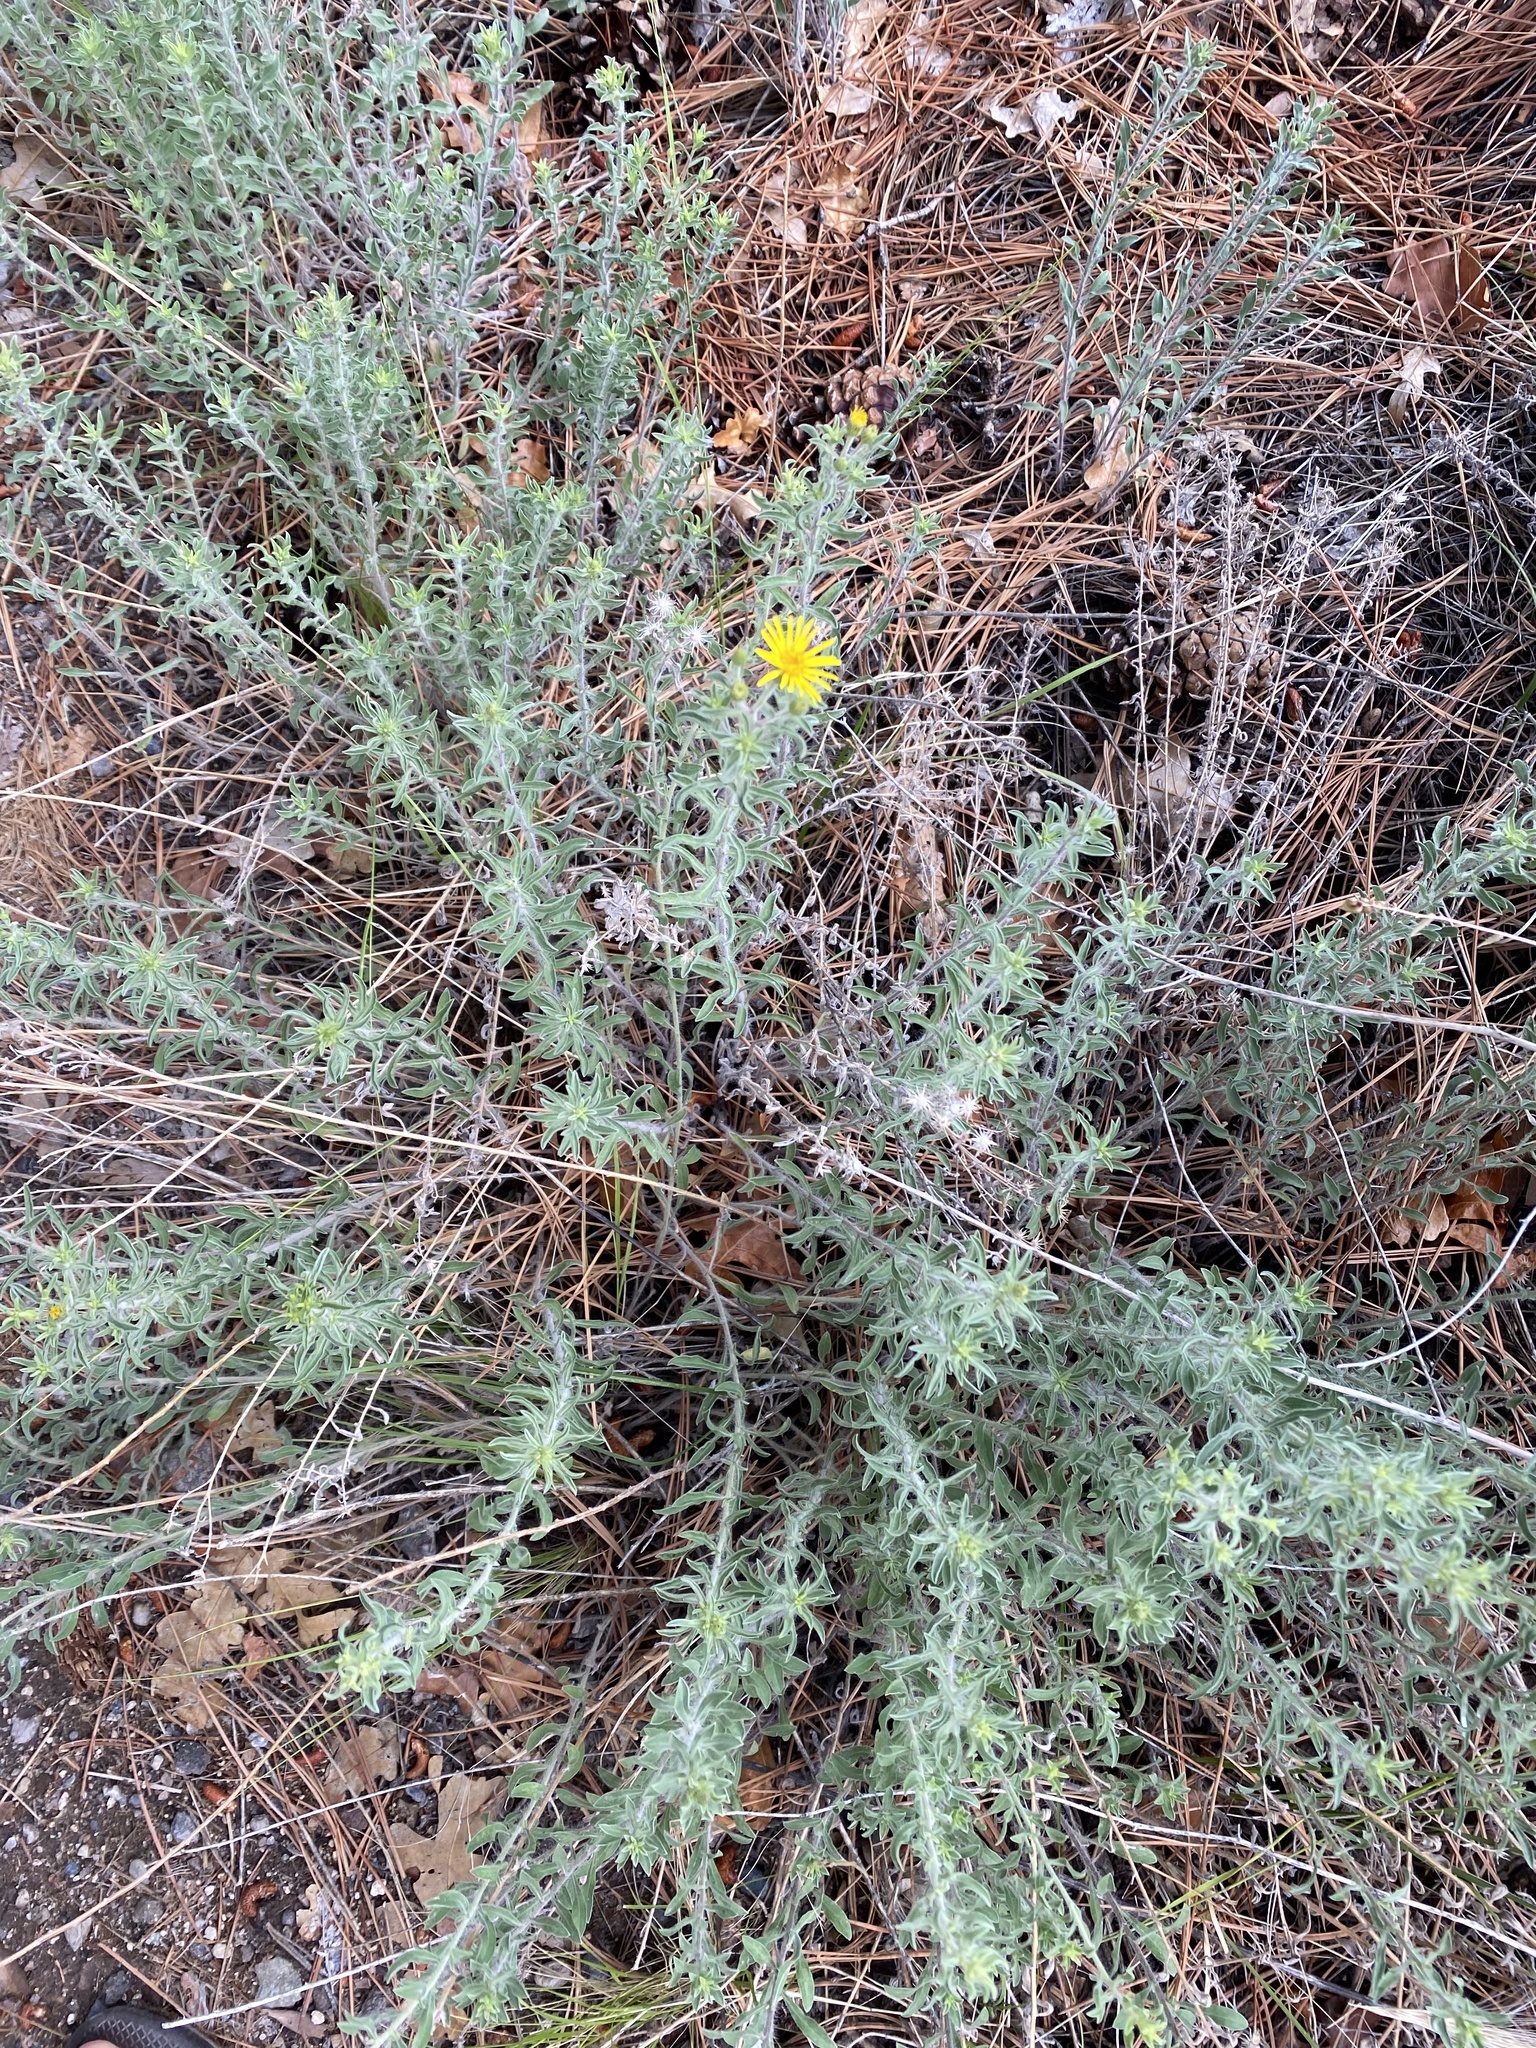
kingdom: Plantae
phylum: Tracheophyta
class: Magnoliopsida
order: Asterales
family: Asteraceae
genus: Heterotheca
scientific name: Heterotheca hirsutissima
